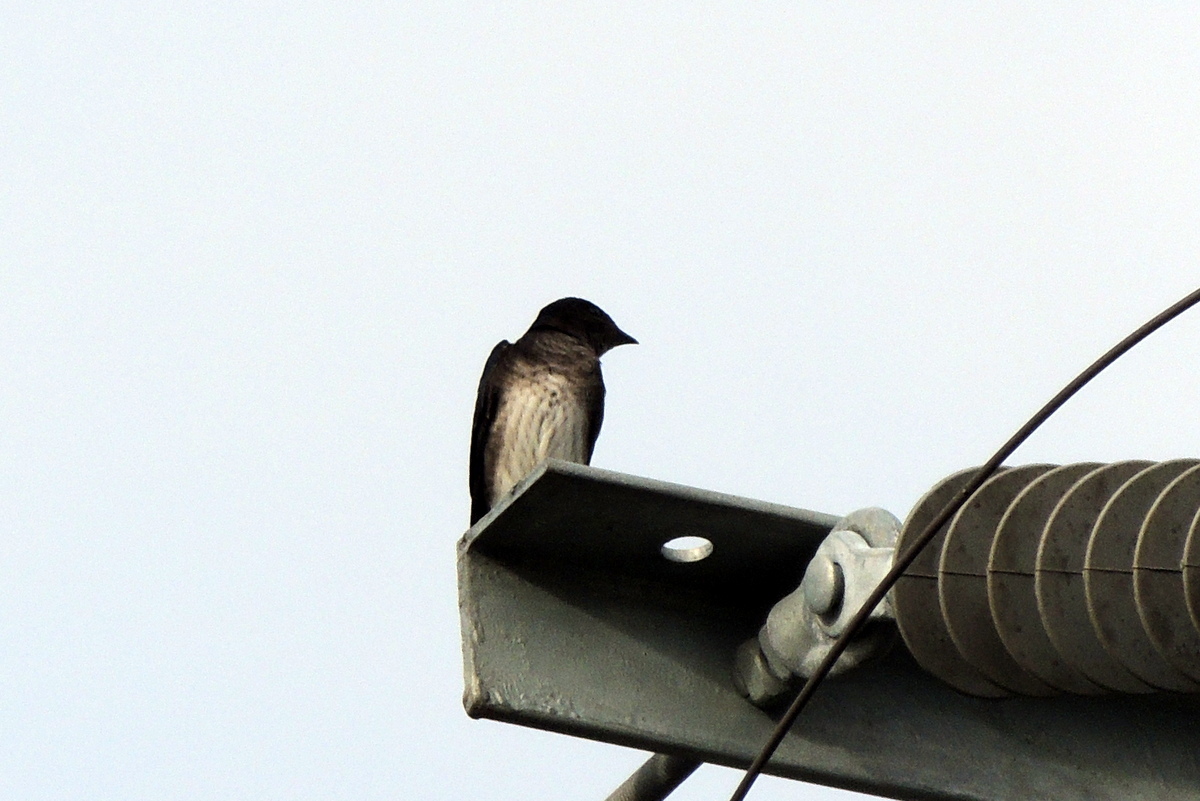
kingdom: Animalia
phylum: Chordata
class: Aves
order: Passeriformes
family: Hirundinidae
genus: Progne
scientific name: Progne chalybea
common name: Grey-breasted martin
